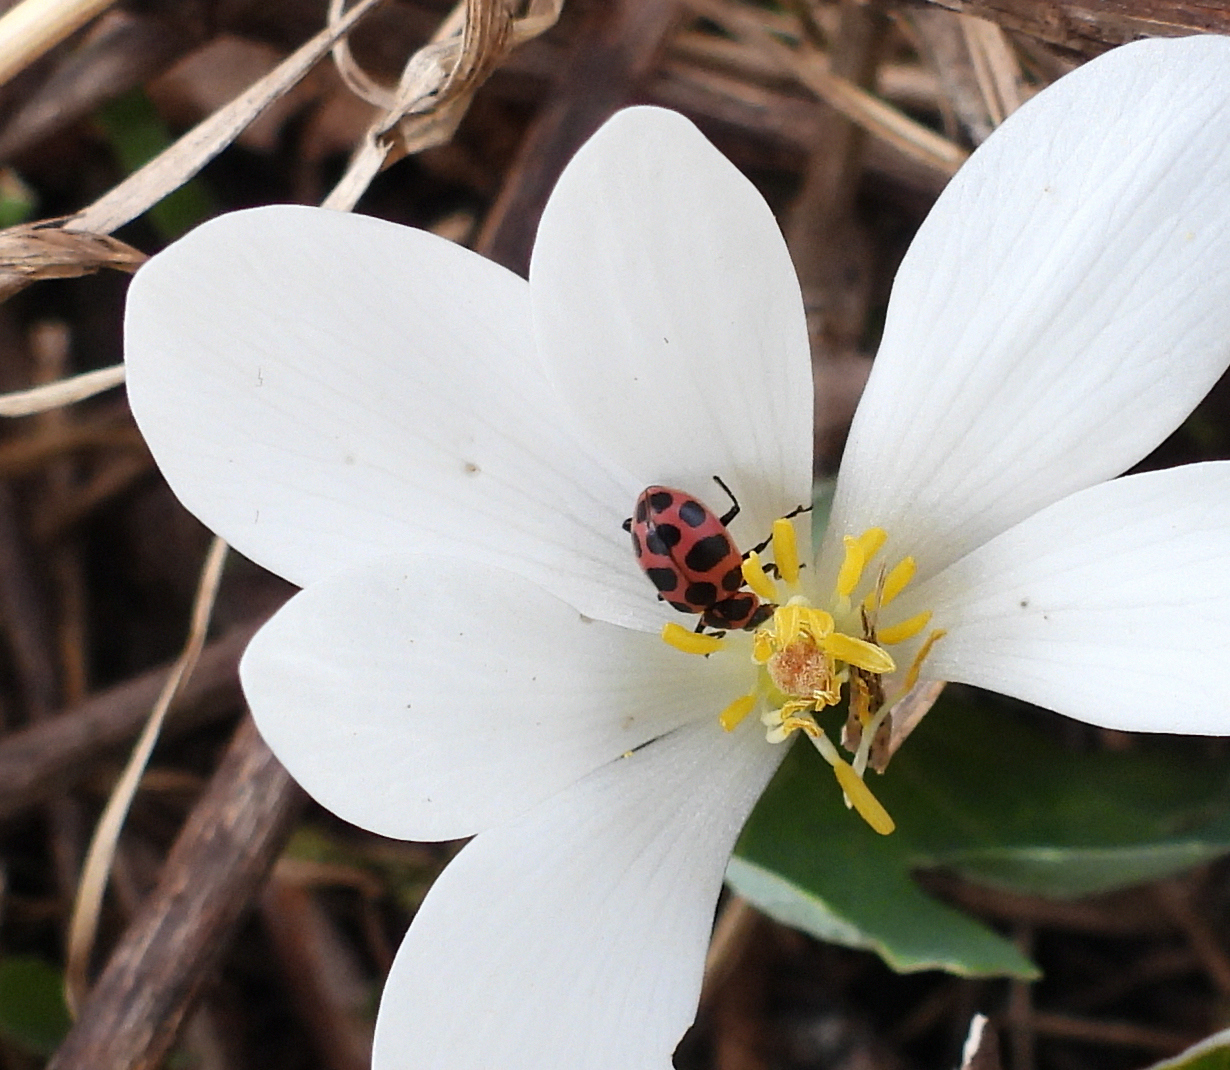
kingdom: Animalia
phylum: Arthropoda
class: Insecta
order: Coleoptera
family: Coccinellidae
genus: Coleomegilla
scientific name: Coleomegilla maculata
